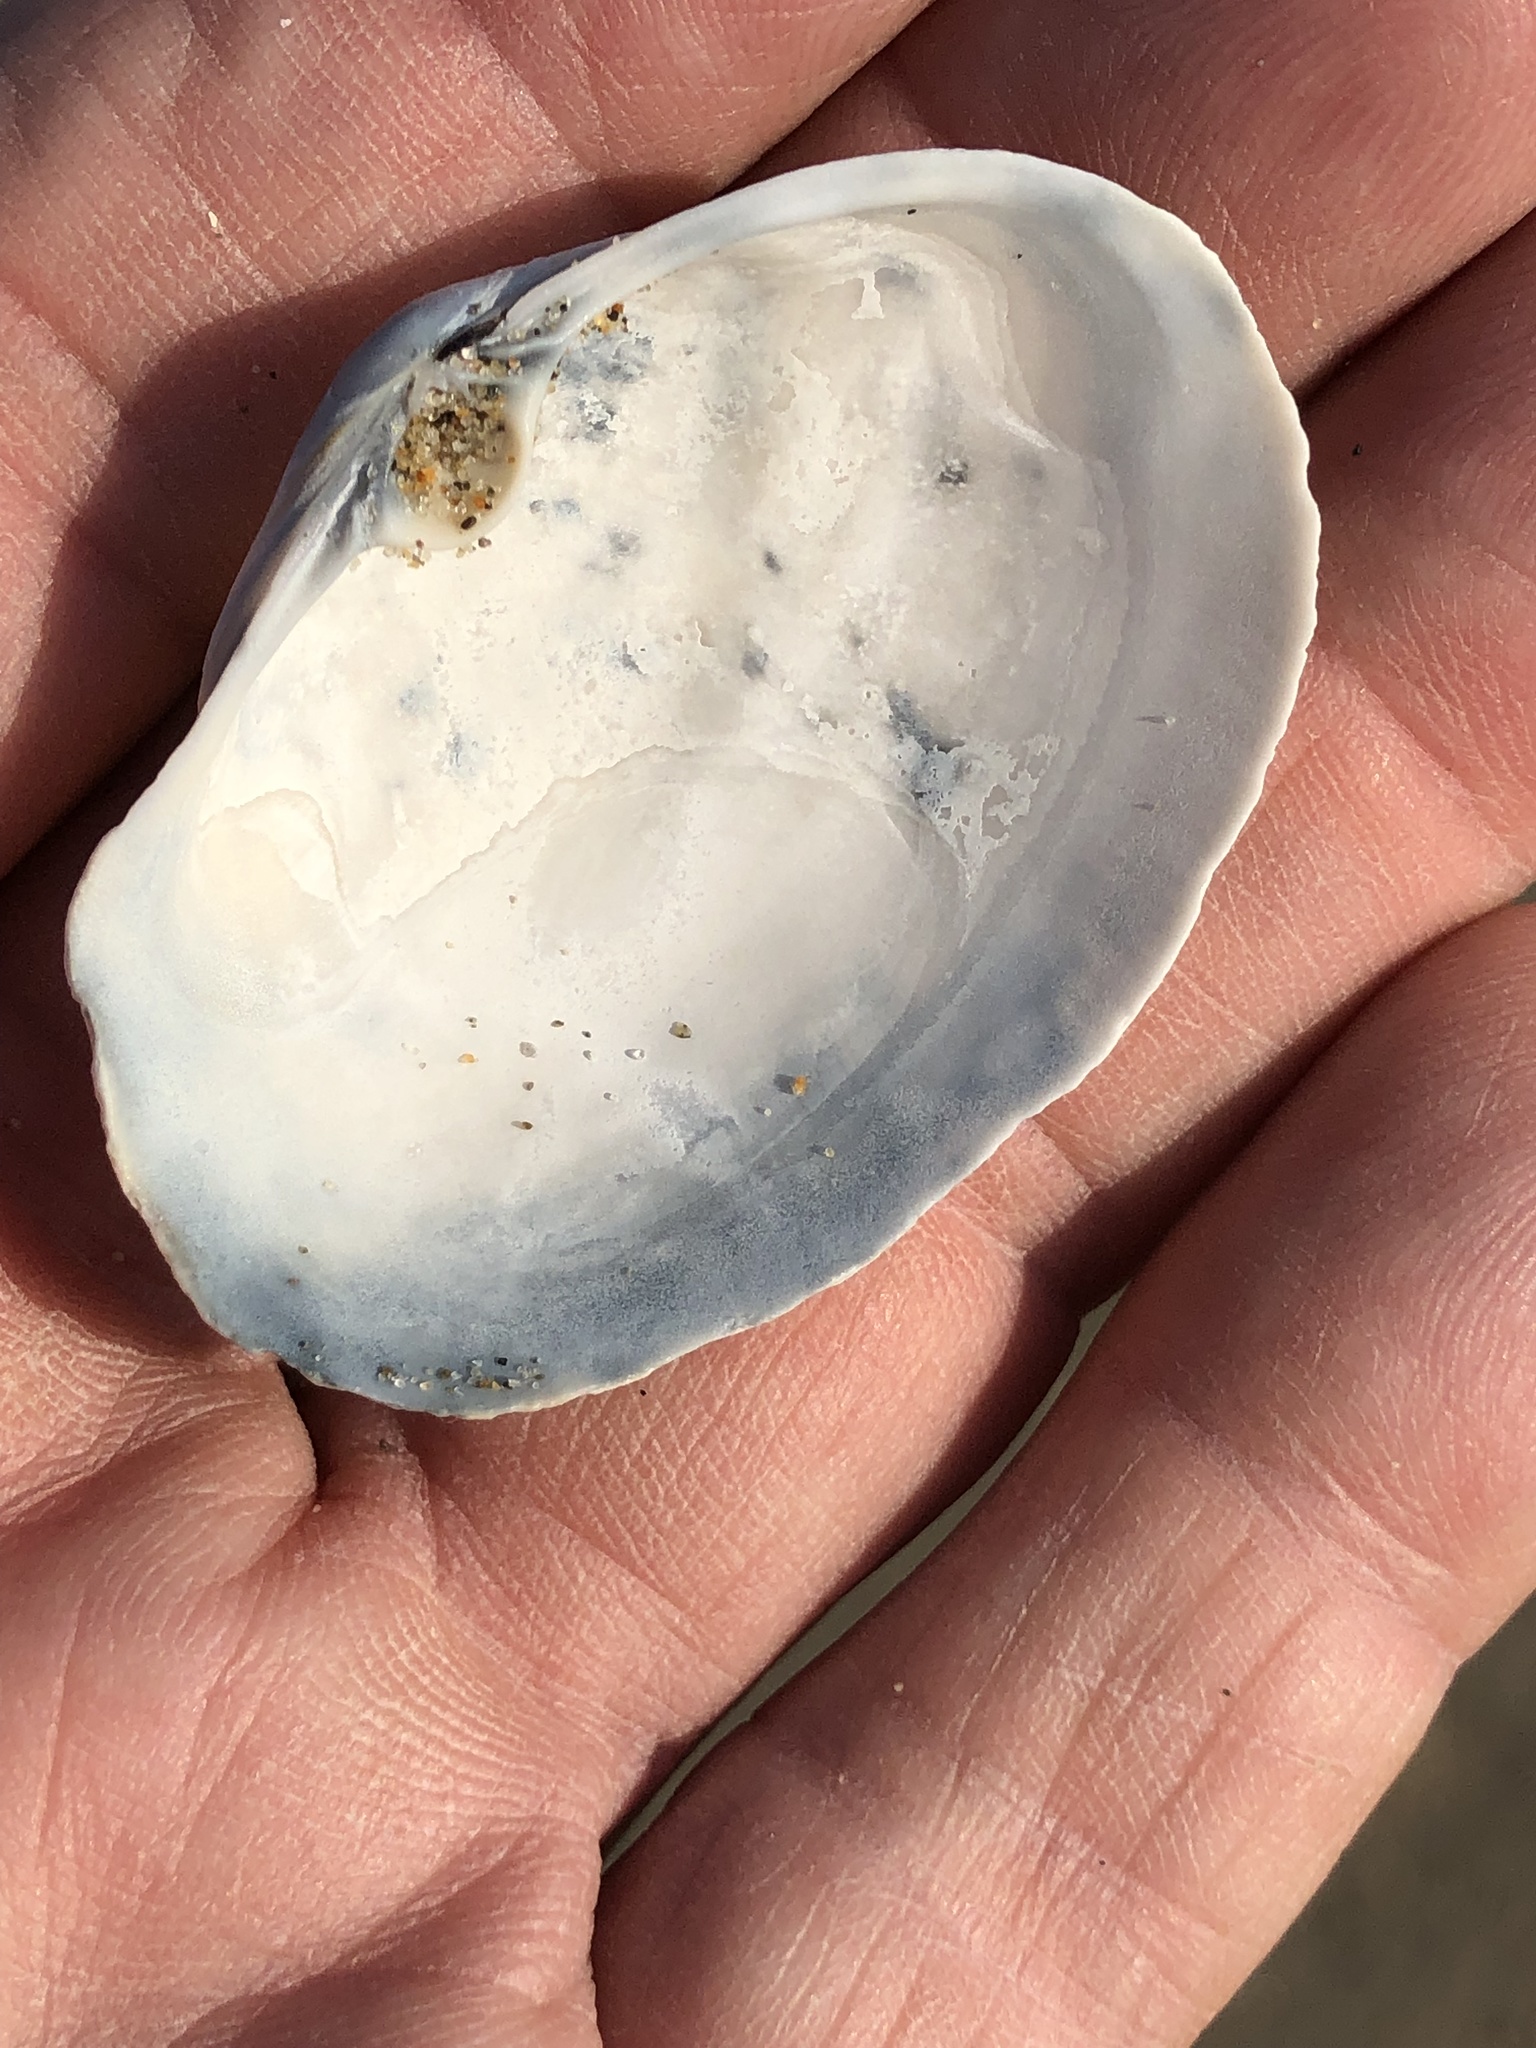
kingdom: Animalia
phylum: Mollusca
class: Bivalvia
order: Venerida
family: Mactridae
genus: Tresus
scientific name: Tresus nuttallii
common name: Pacific gaper clam
